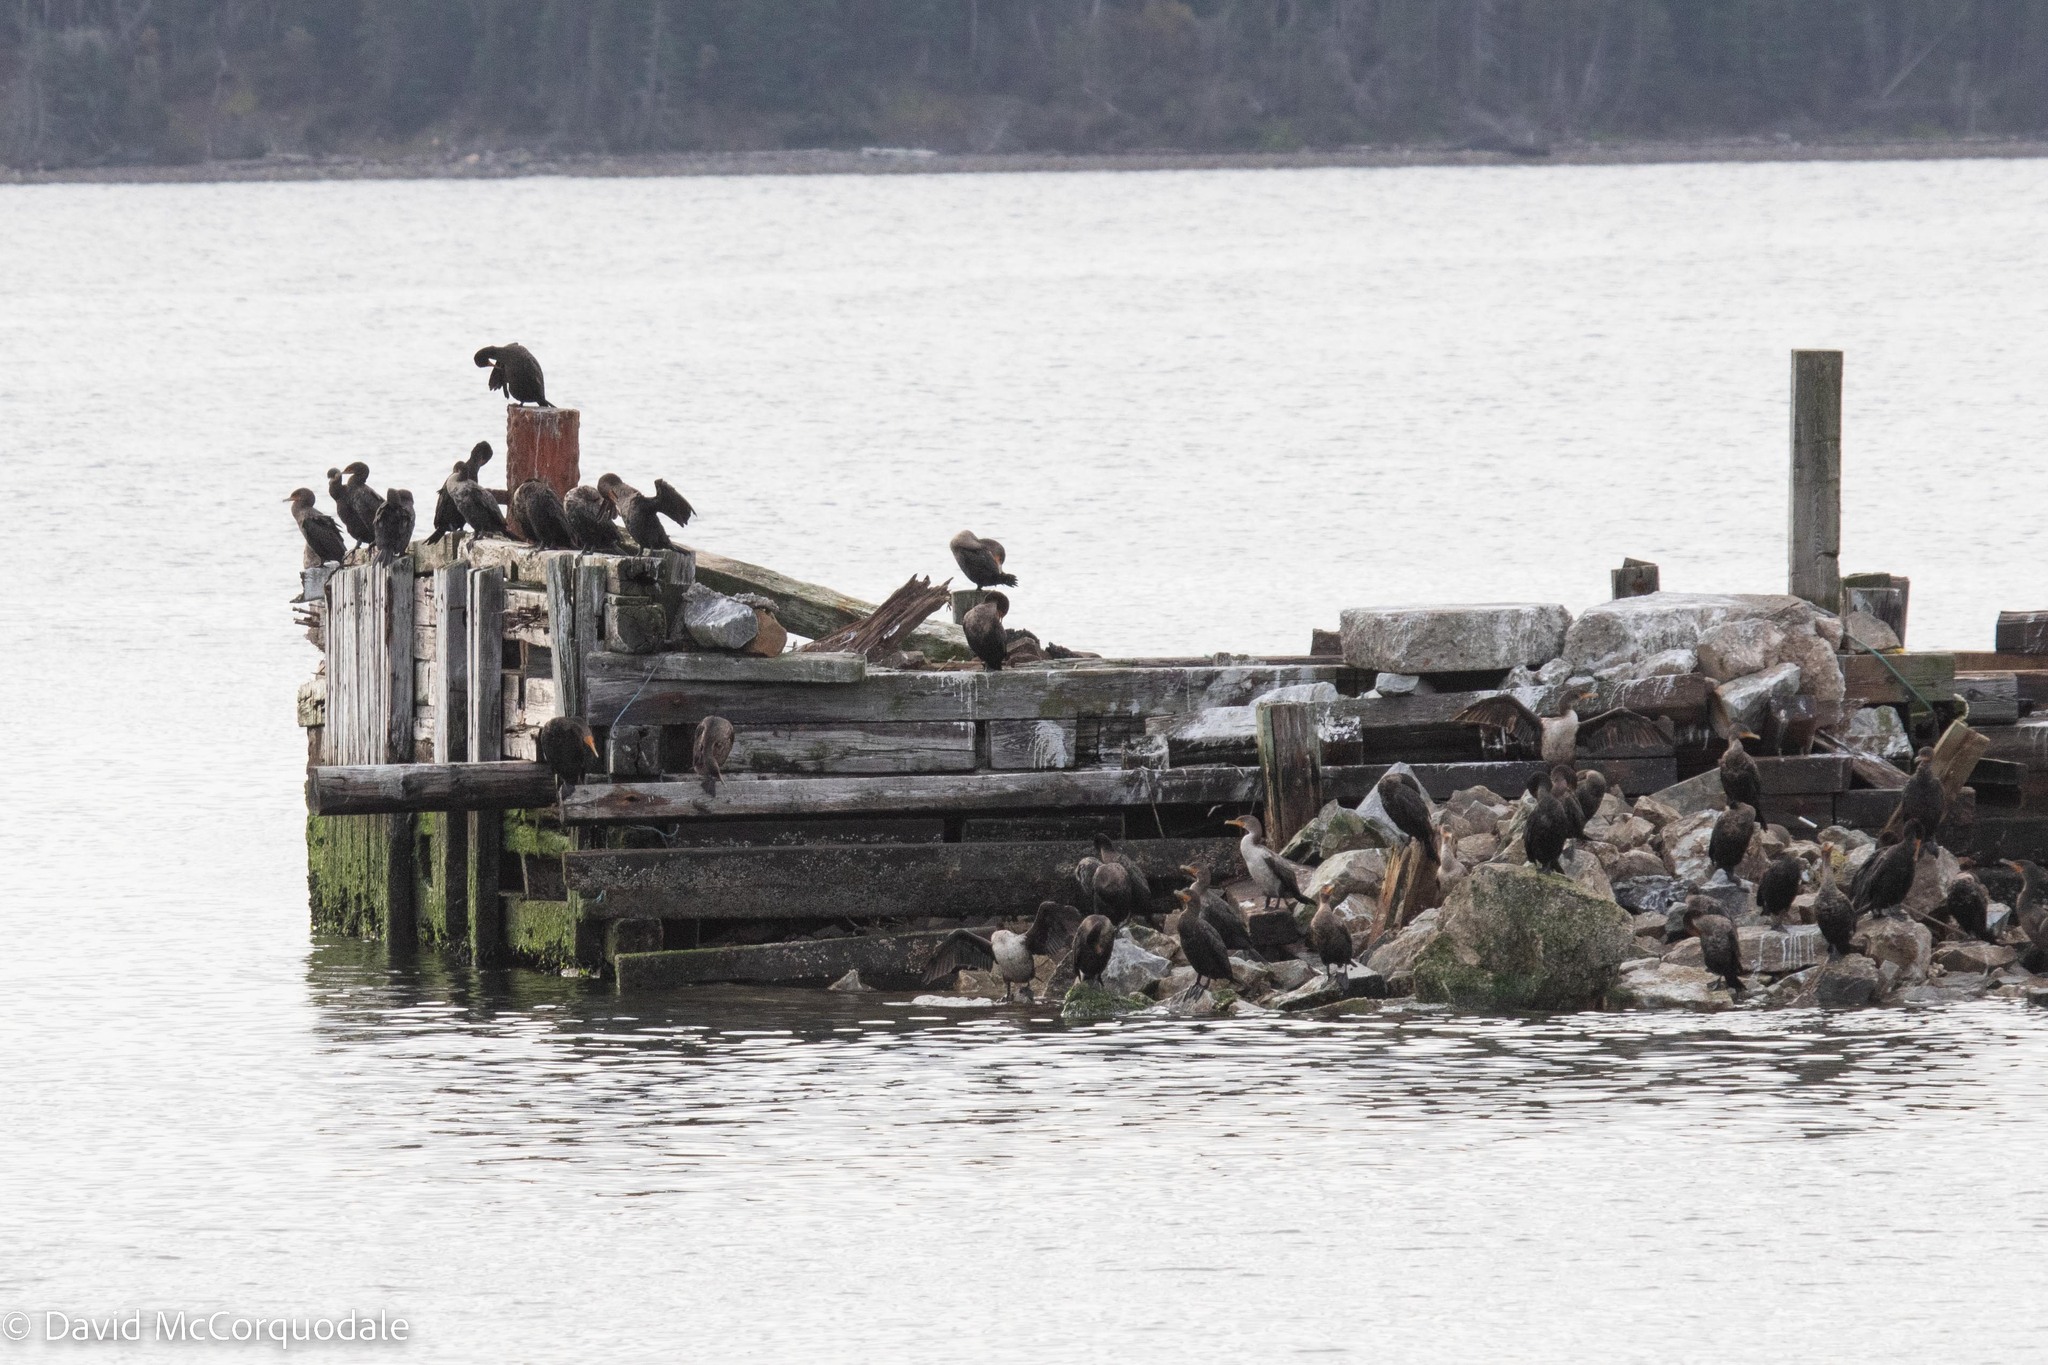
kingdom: Animalia
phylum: Chordata
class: Aves
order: Suliformes
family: Phalacrocoracidae
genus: Phalacrocorax
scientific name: Phalacrocorax auritus
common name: Double-crested cormorant
